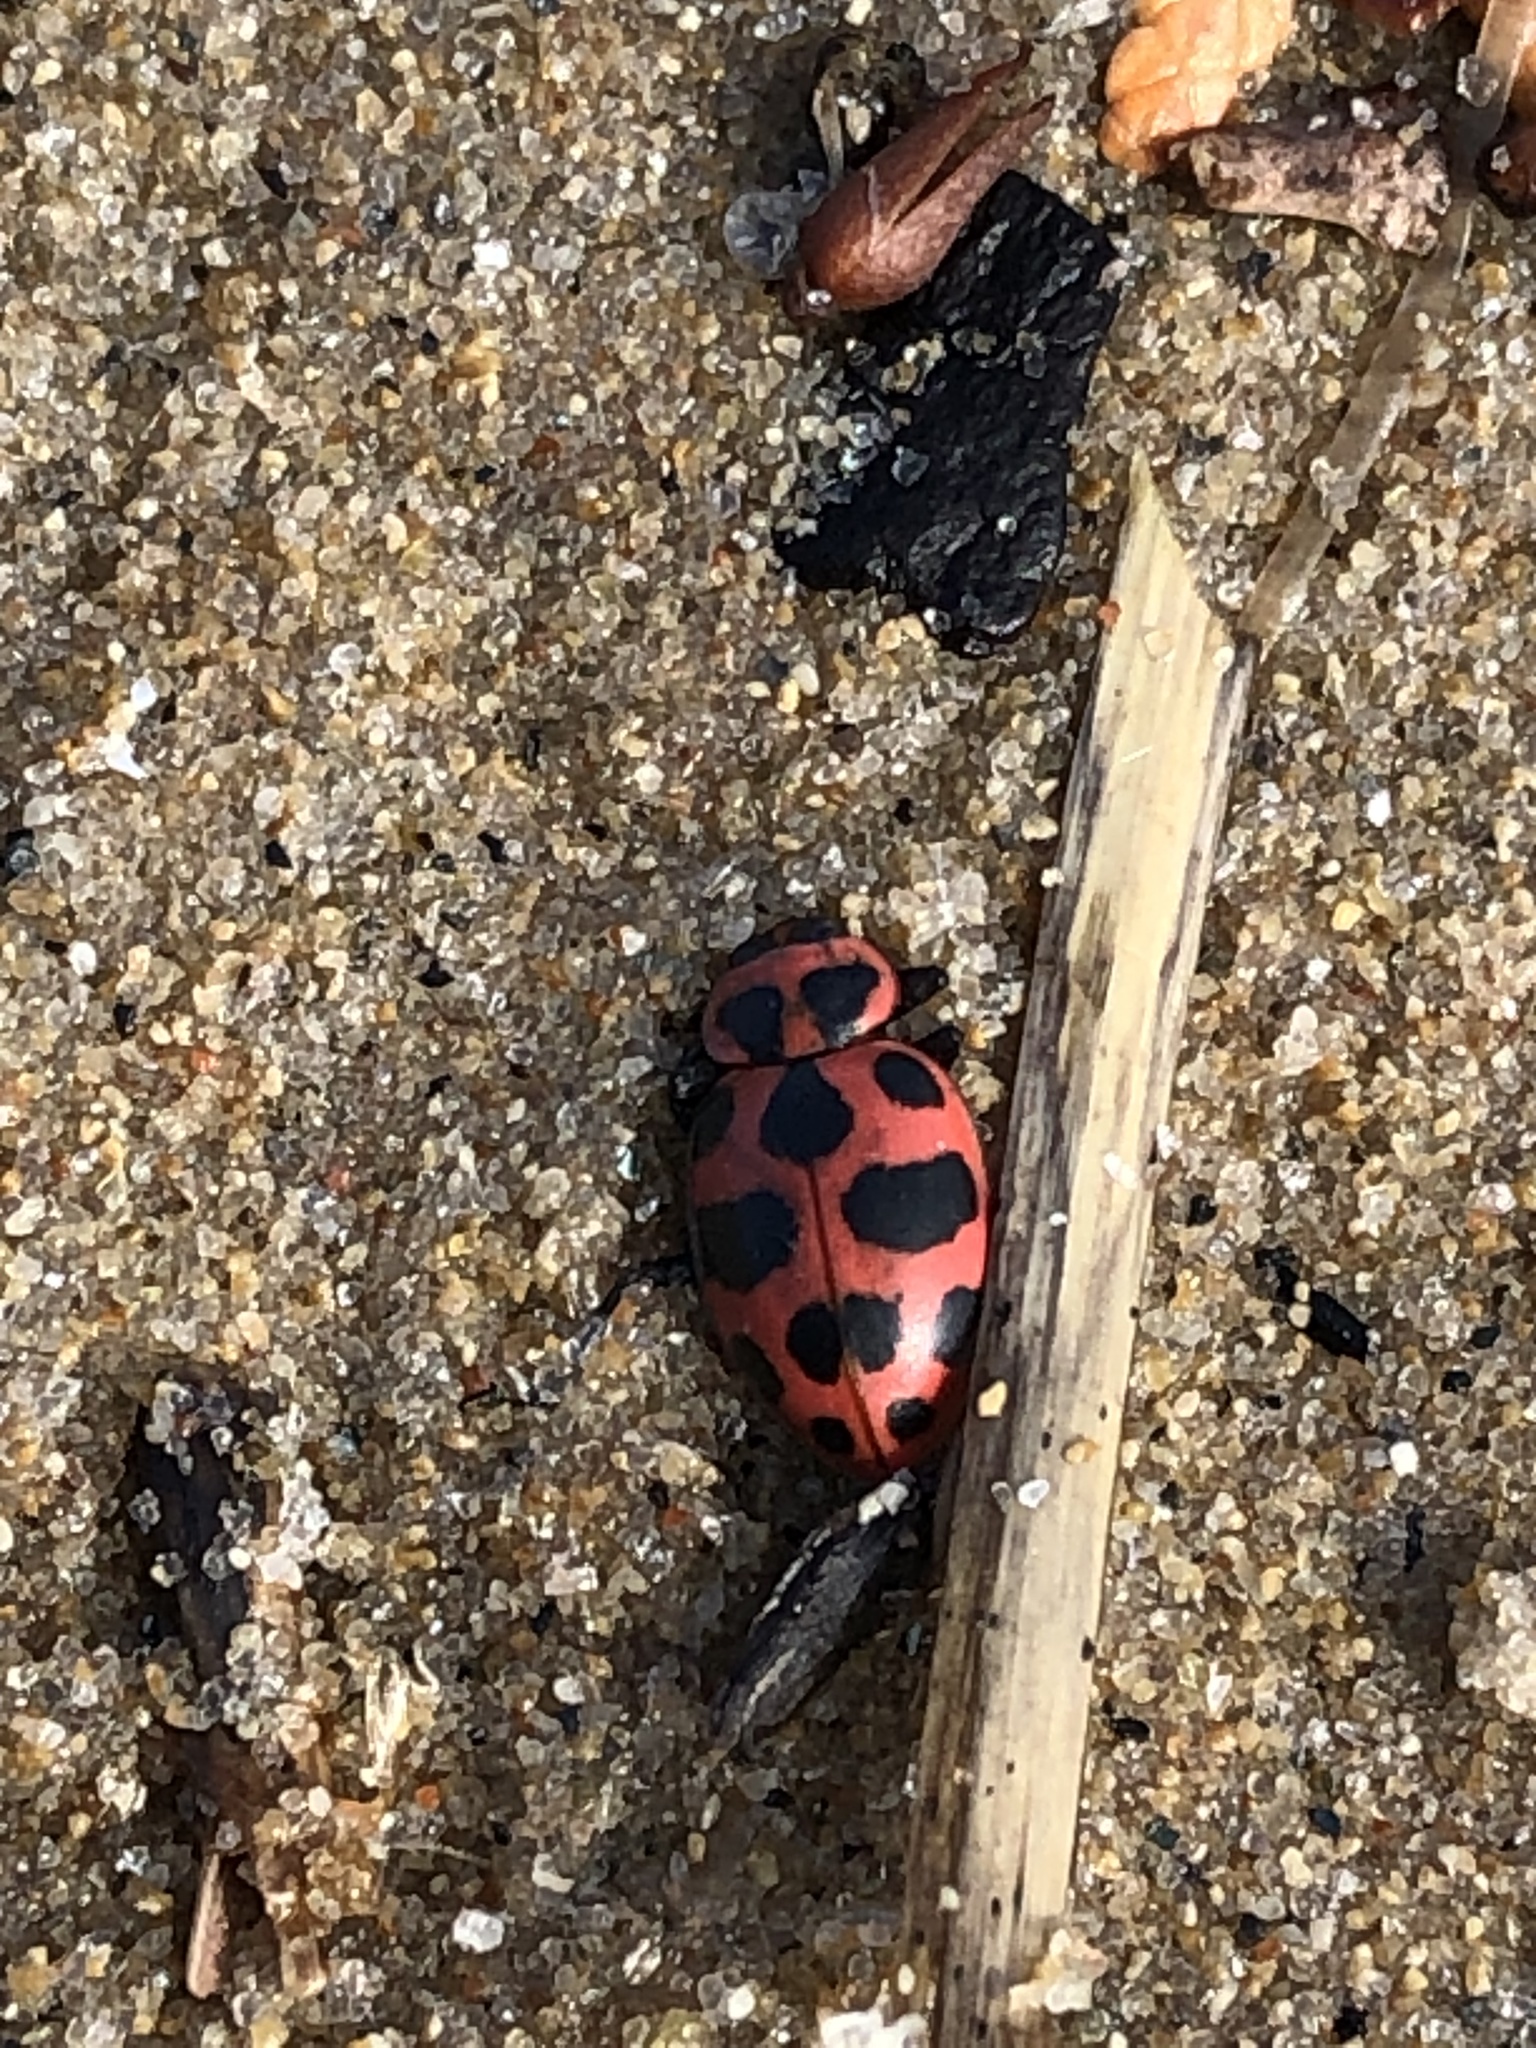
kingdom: Animalia
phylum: Arthropoda
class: Insecta
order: Coleoptera
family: Coccinellidae
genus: Coleomegilla
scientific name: Coleomegilla maculata
